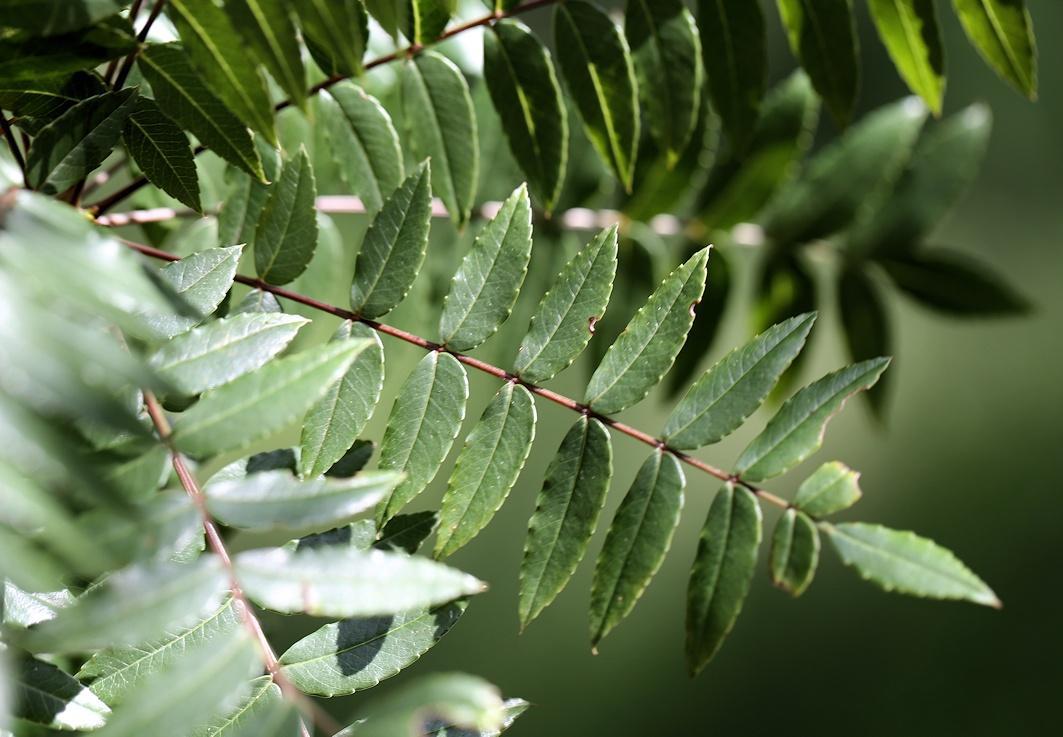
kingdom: Plantae
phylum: Tracheophyta
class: Magnoliopsida
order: Sapindales
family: Kirkiaceae
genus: Kirkia
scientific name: Kirkia wilmsii
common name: Mountain seringa
